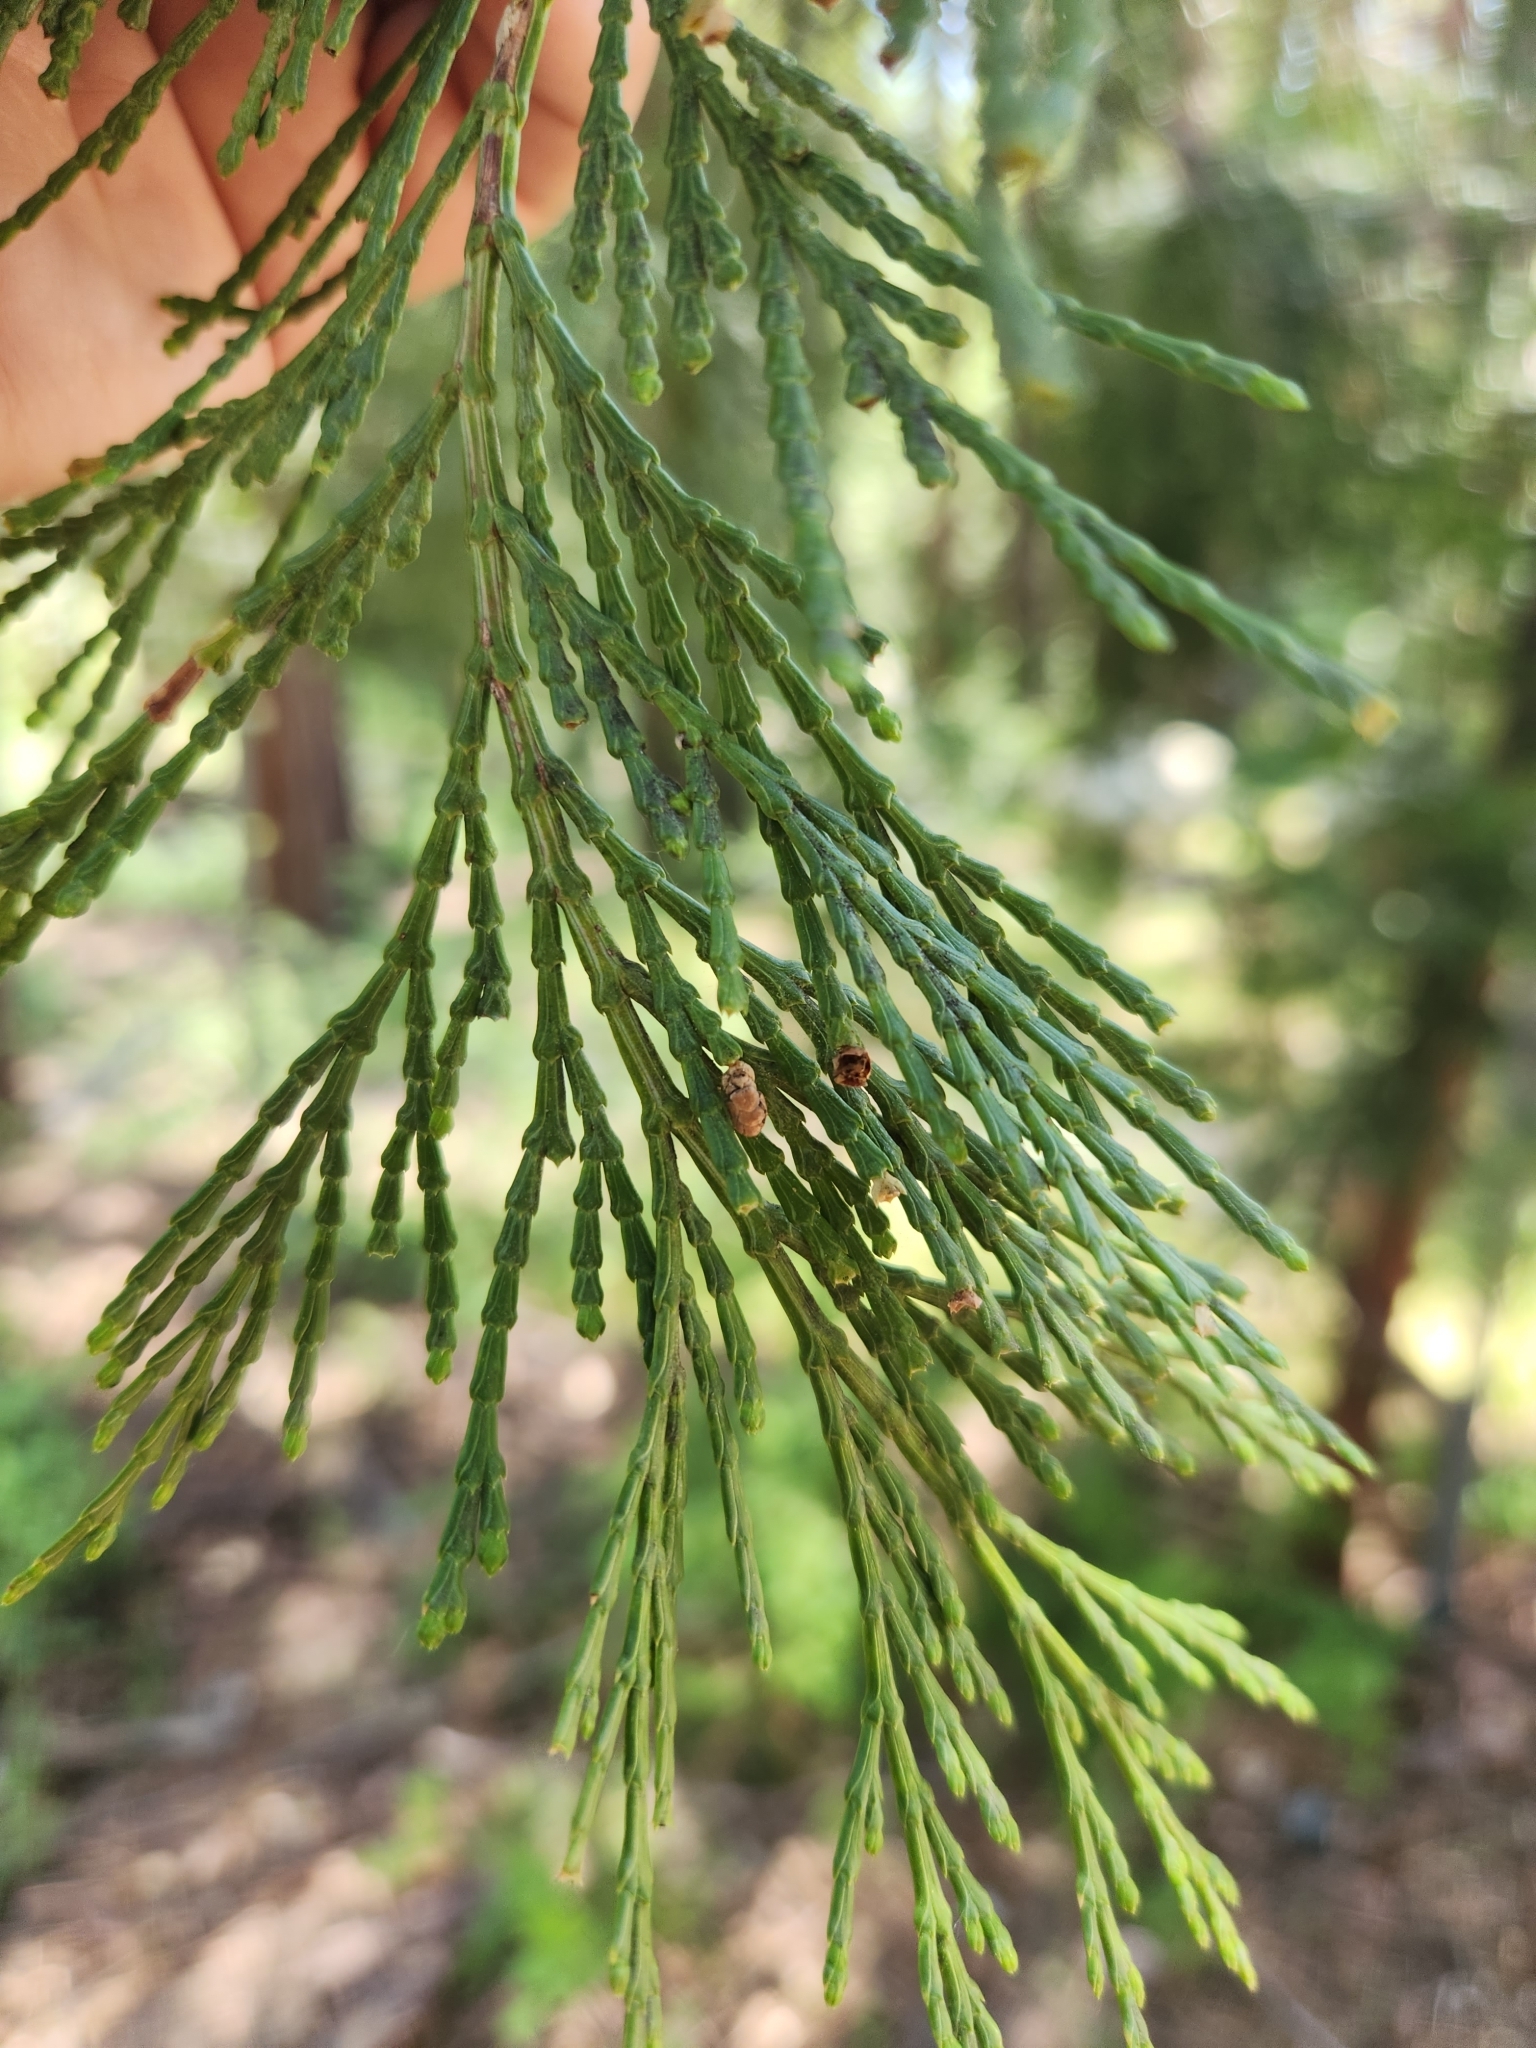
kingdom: Plantae
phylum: Tracheophyta
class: Pinopsida
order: Pinales
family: Cupressaceae
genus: Calocedrus
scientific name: Calocedrus decurrens
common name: Californian incense-cedar
